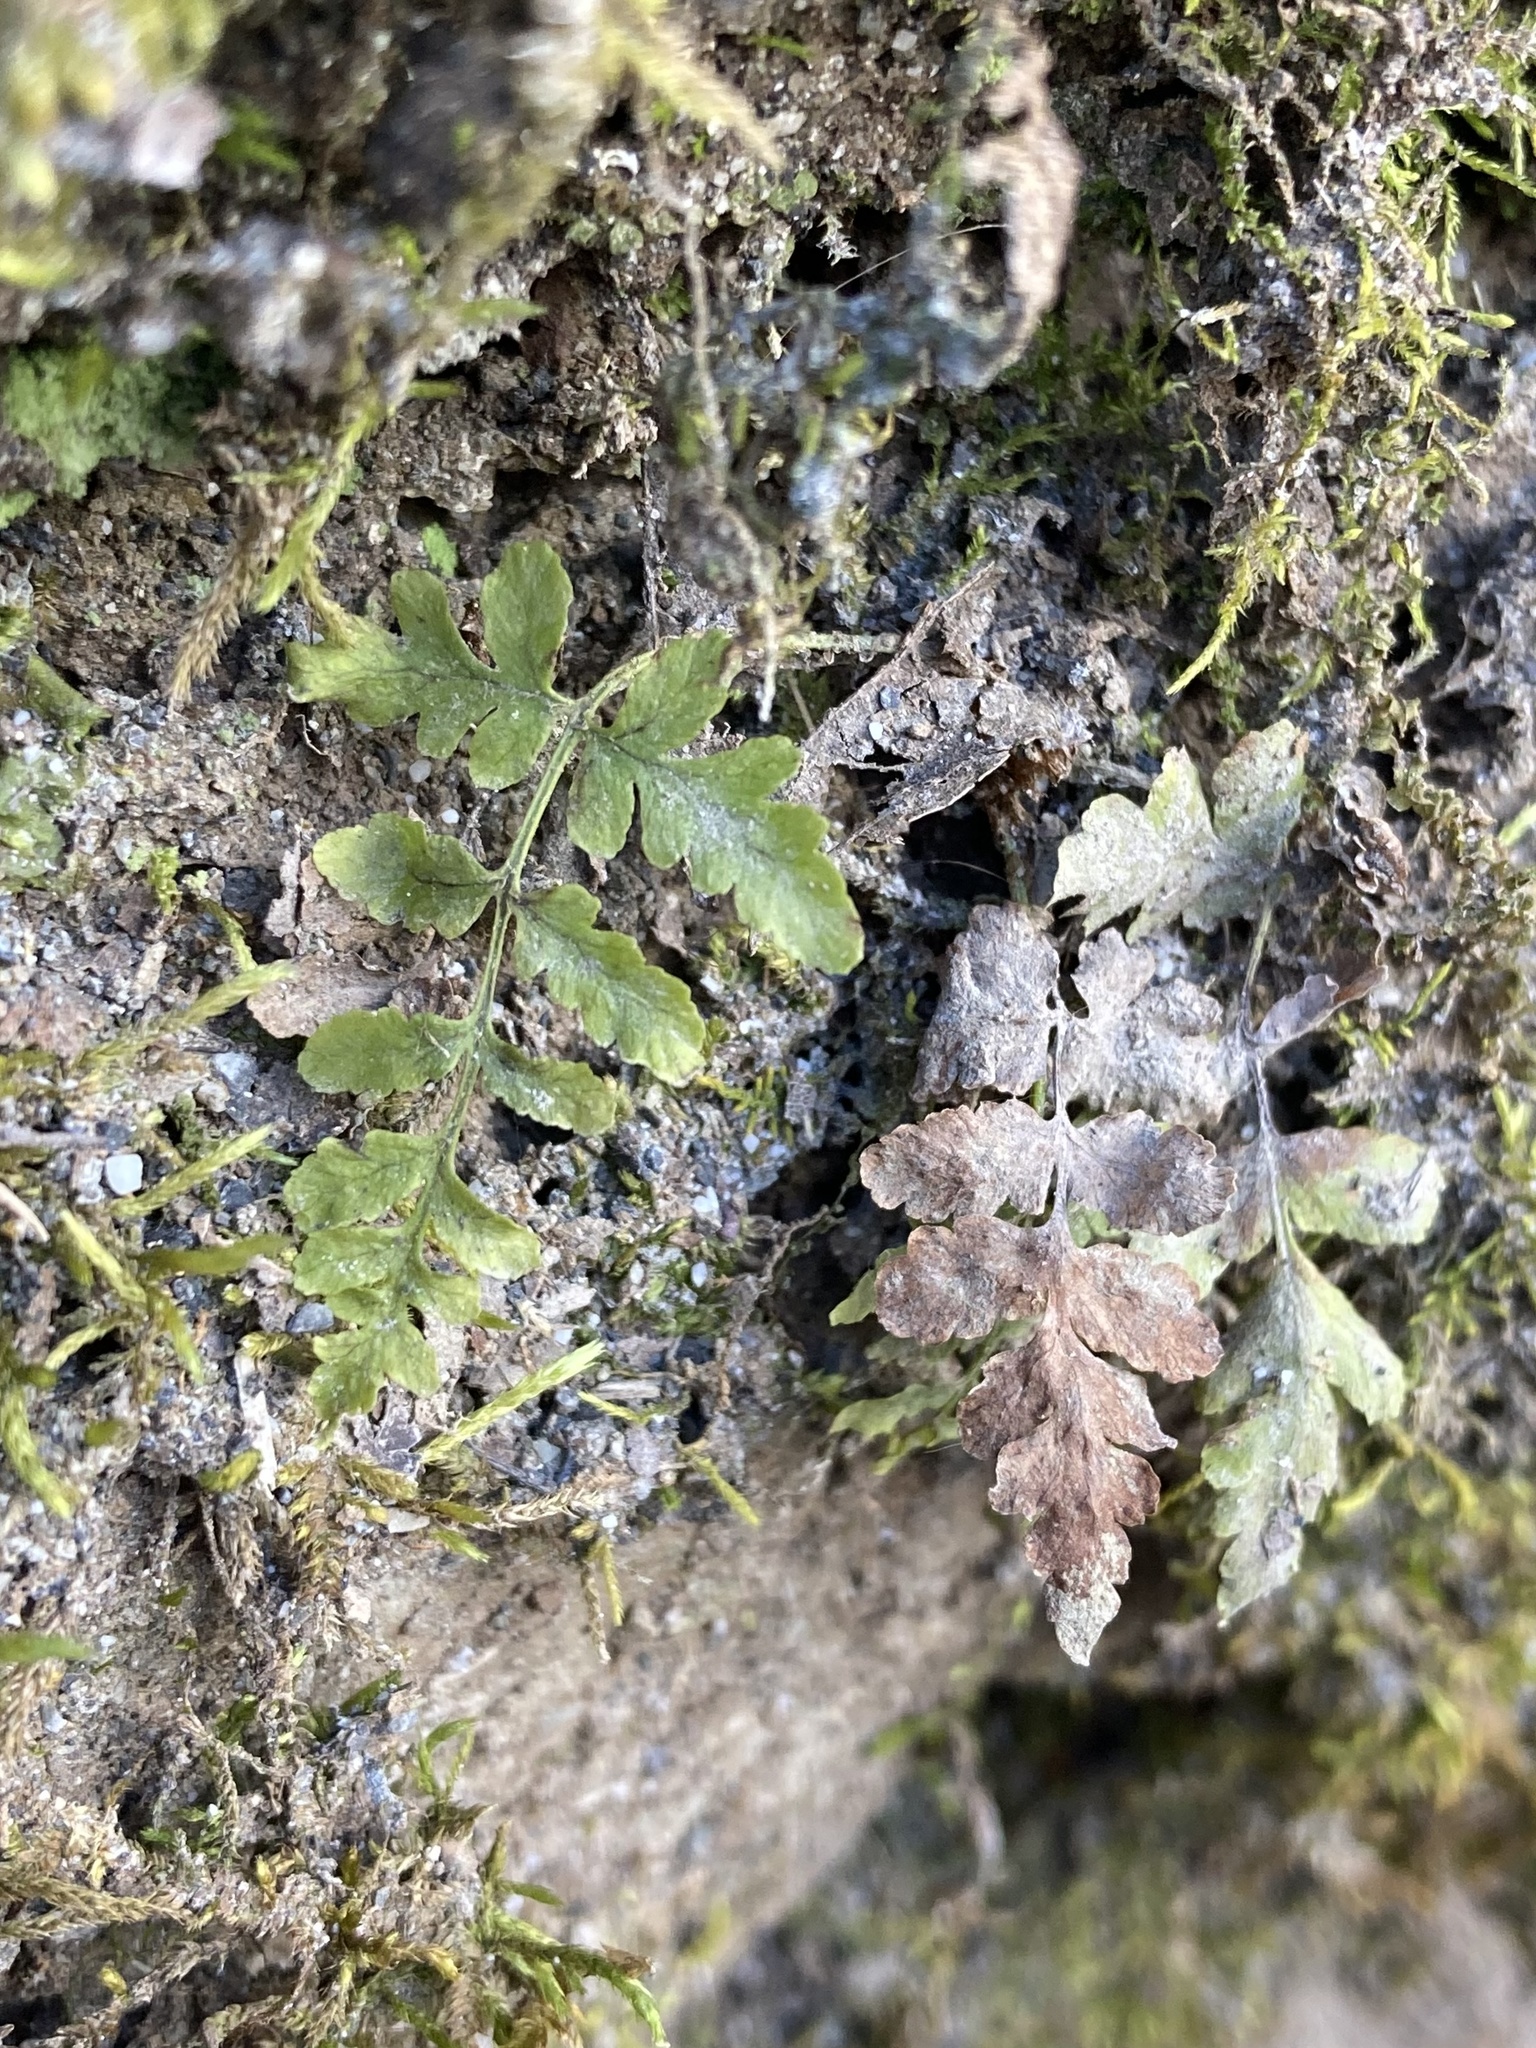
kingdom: Plantae
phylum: Tracheophyta
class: Polypodiopsida
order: Polypodiales
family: Woodsiaceae
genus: Physematium
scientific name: Physematium obtusum
